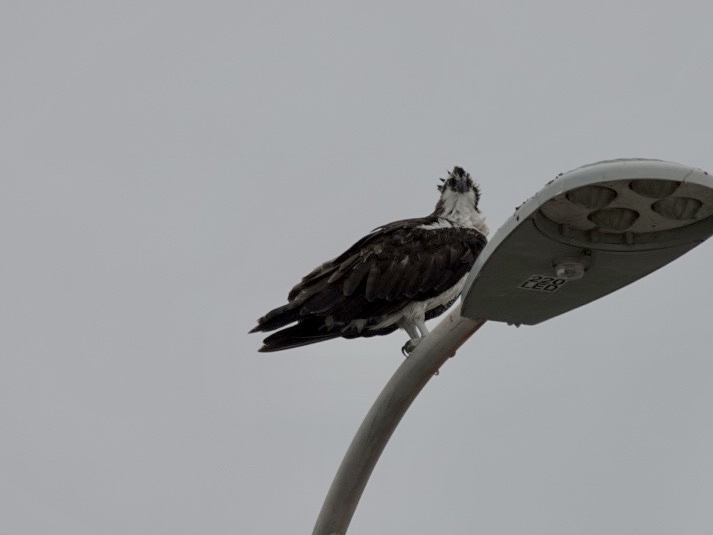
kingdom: Animalia
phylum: Chordata
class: Aves
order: Accipitriformes
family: Pandionidae
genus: Pandion
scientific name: Pandion haliaetus
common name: Osprey
